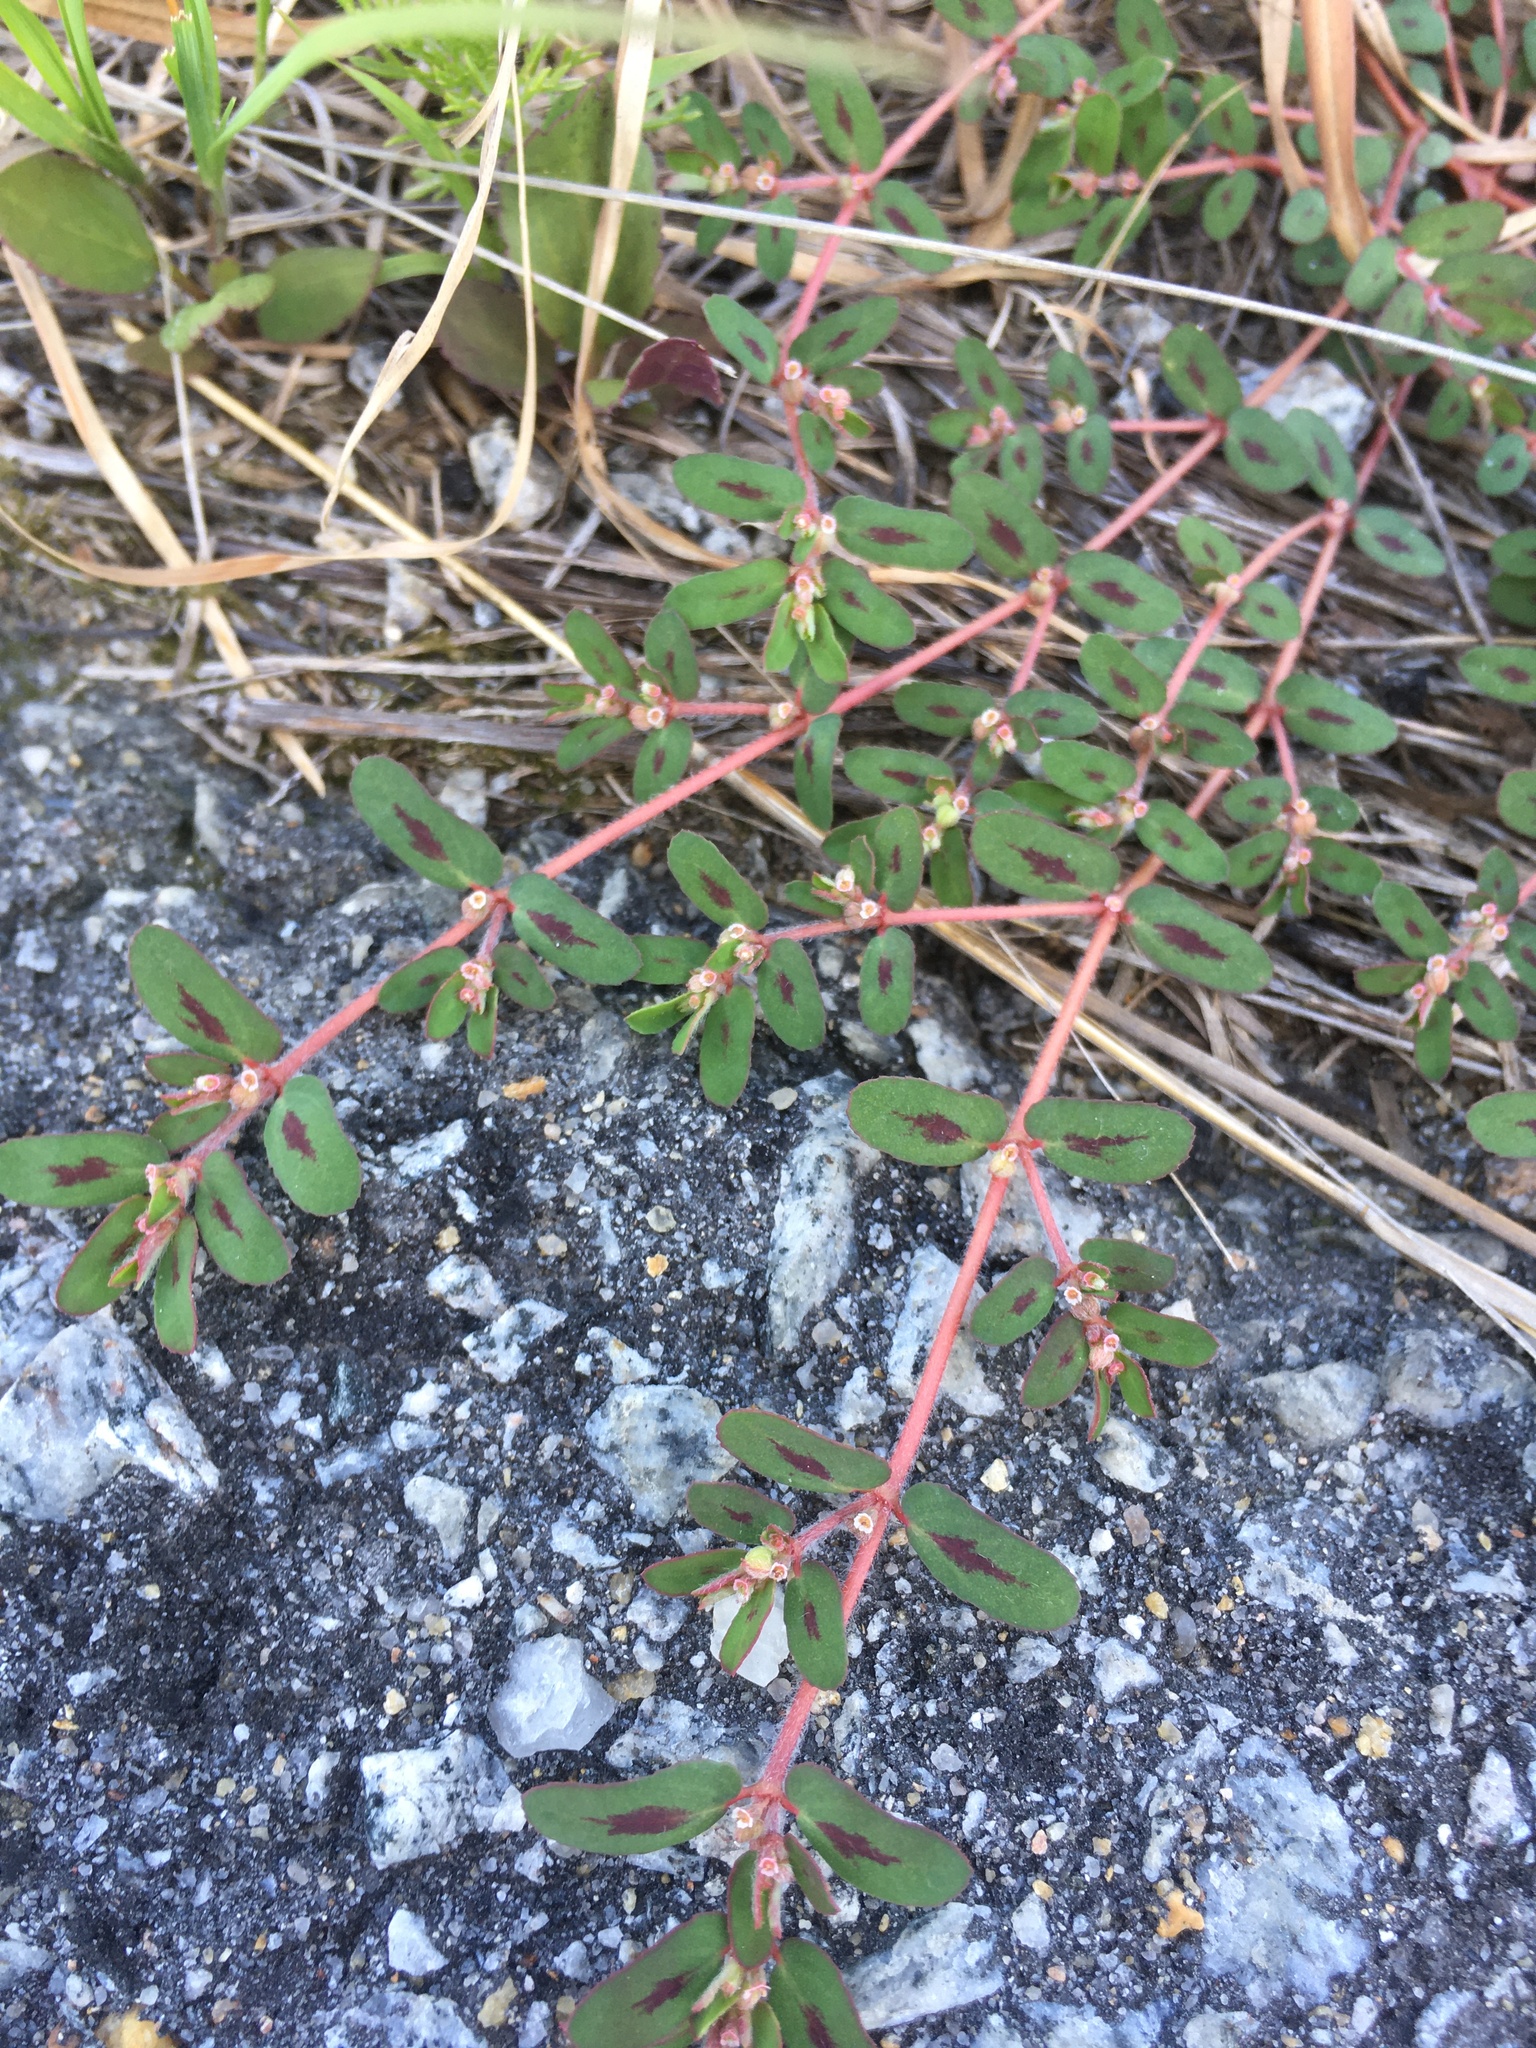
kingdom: Plantae
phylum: Tracheophyta
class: Magnoliopsida
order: Malpighiales
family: Euphorbiaceae
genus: Euphorbia
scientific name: Euphorbia maculata
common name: Spotted spurge
